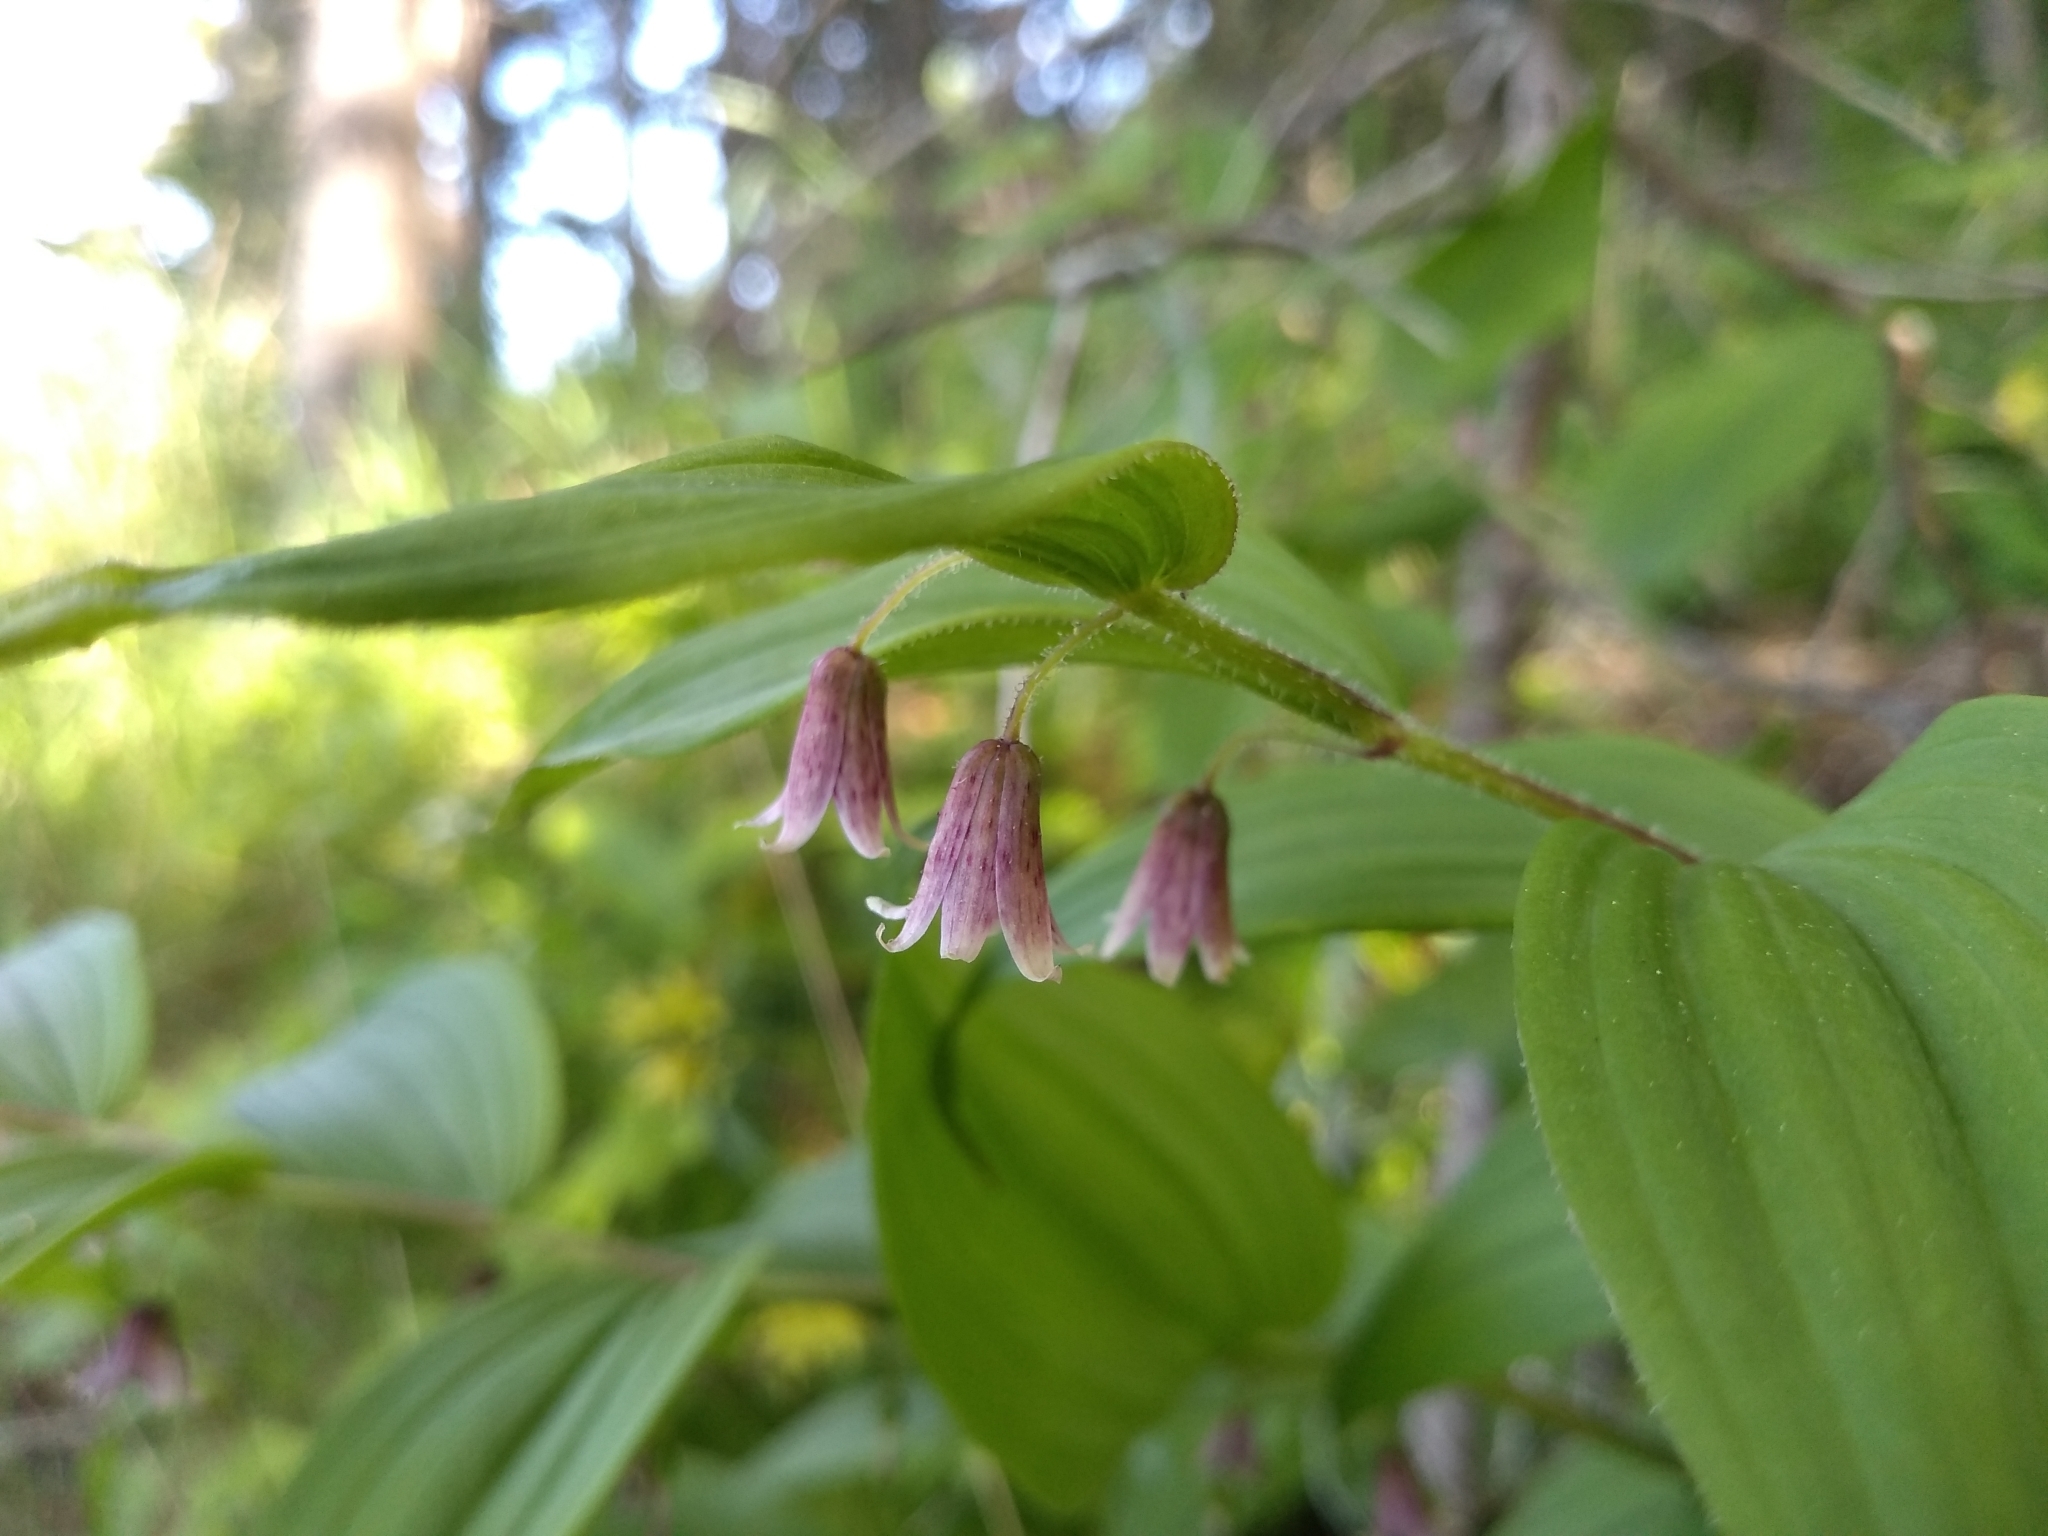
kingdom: Plantae
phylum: Tracheophyta
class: Liliopsida
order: Liliales
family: Liliaceae
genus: Streptopus
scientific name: Streptopus lanceolatus
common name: Rose mandarin
